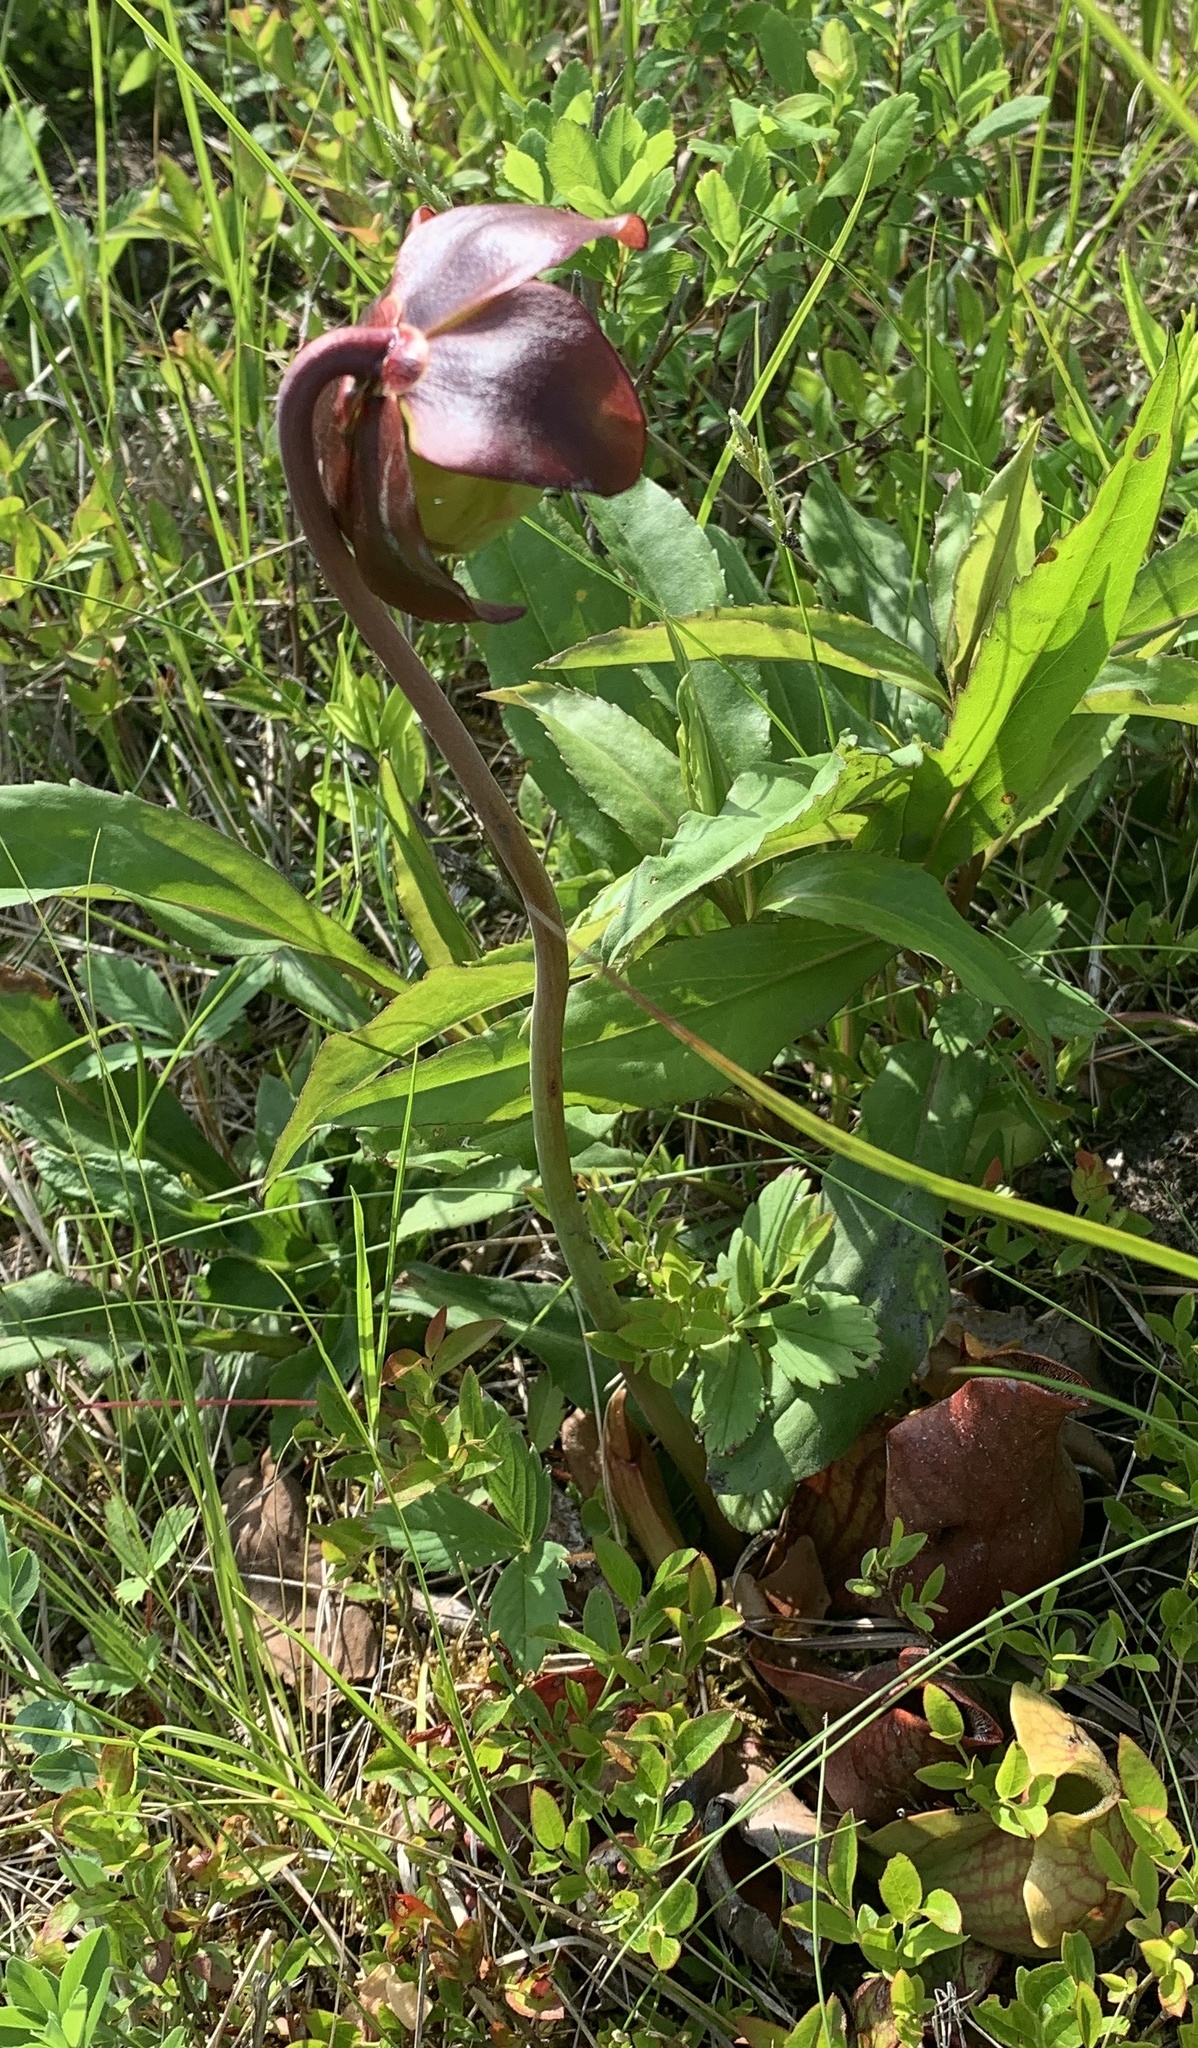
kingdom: Plantae
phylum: Tracheophyta
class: Magnoliopsida
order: Ericales
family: Sarraceniaceae
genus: Sarracenia
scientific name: Sarracenia purpurea
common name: Pitcherplant
